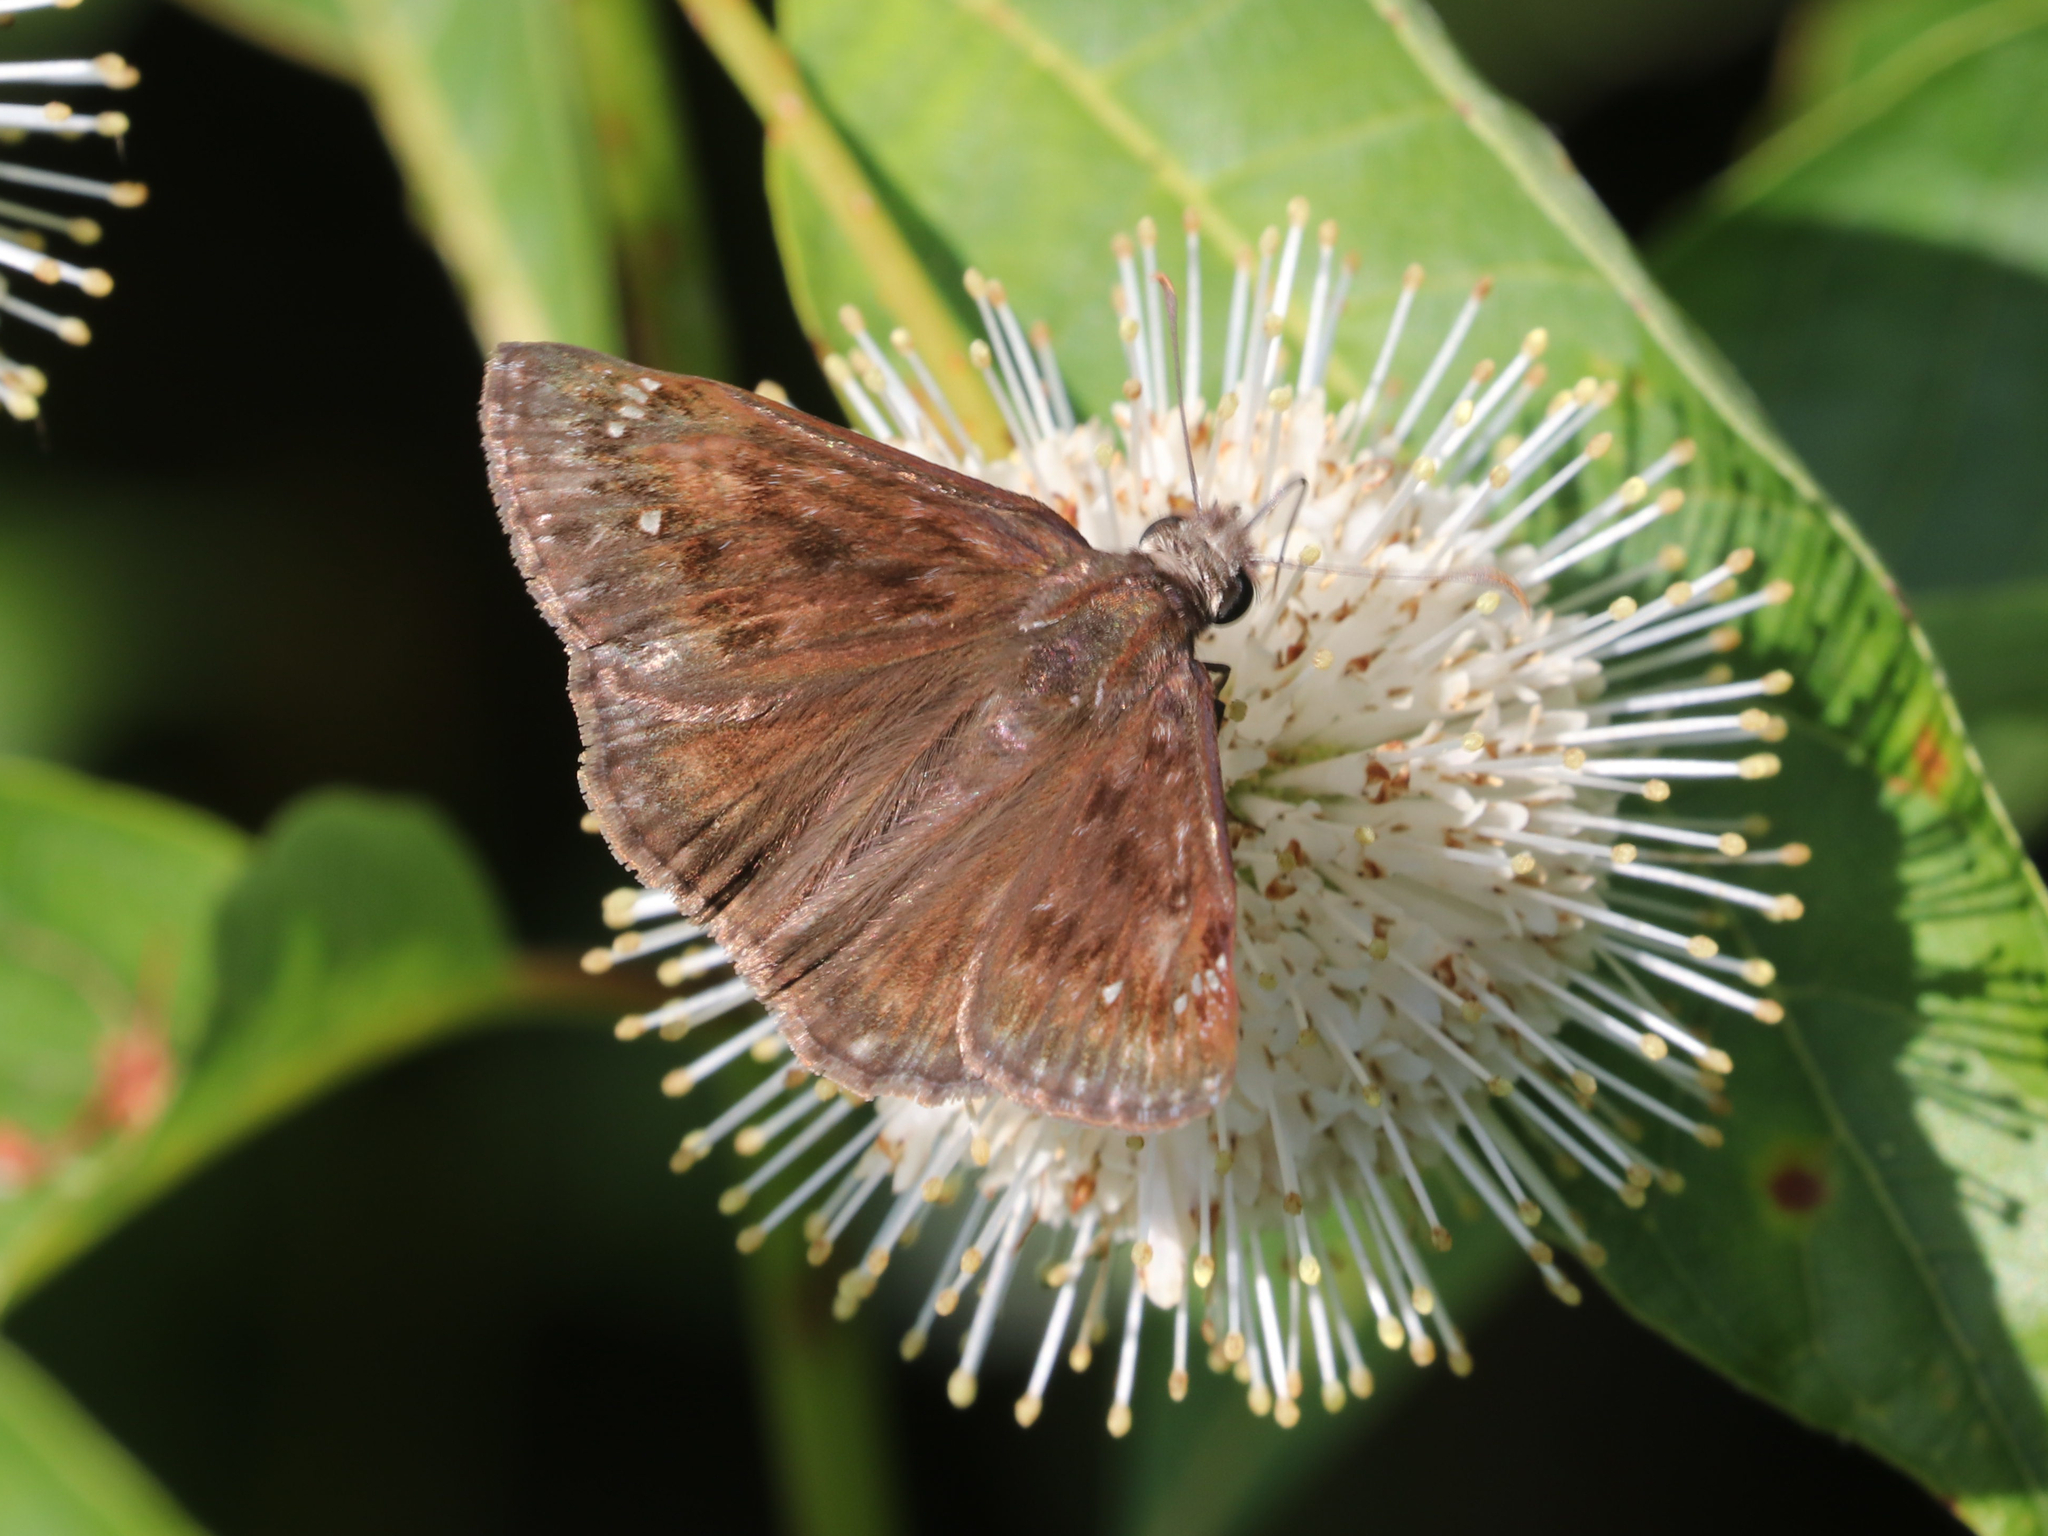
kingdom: Animalia
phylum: Arthropoda
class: Insecta
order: Lepidoptera
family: Hesperiidae
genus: Erynnis
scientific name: Erynnis horatius
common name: Horace's duskywing
